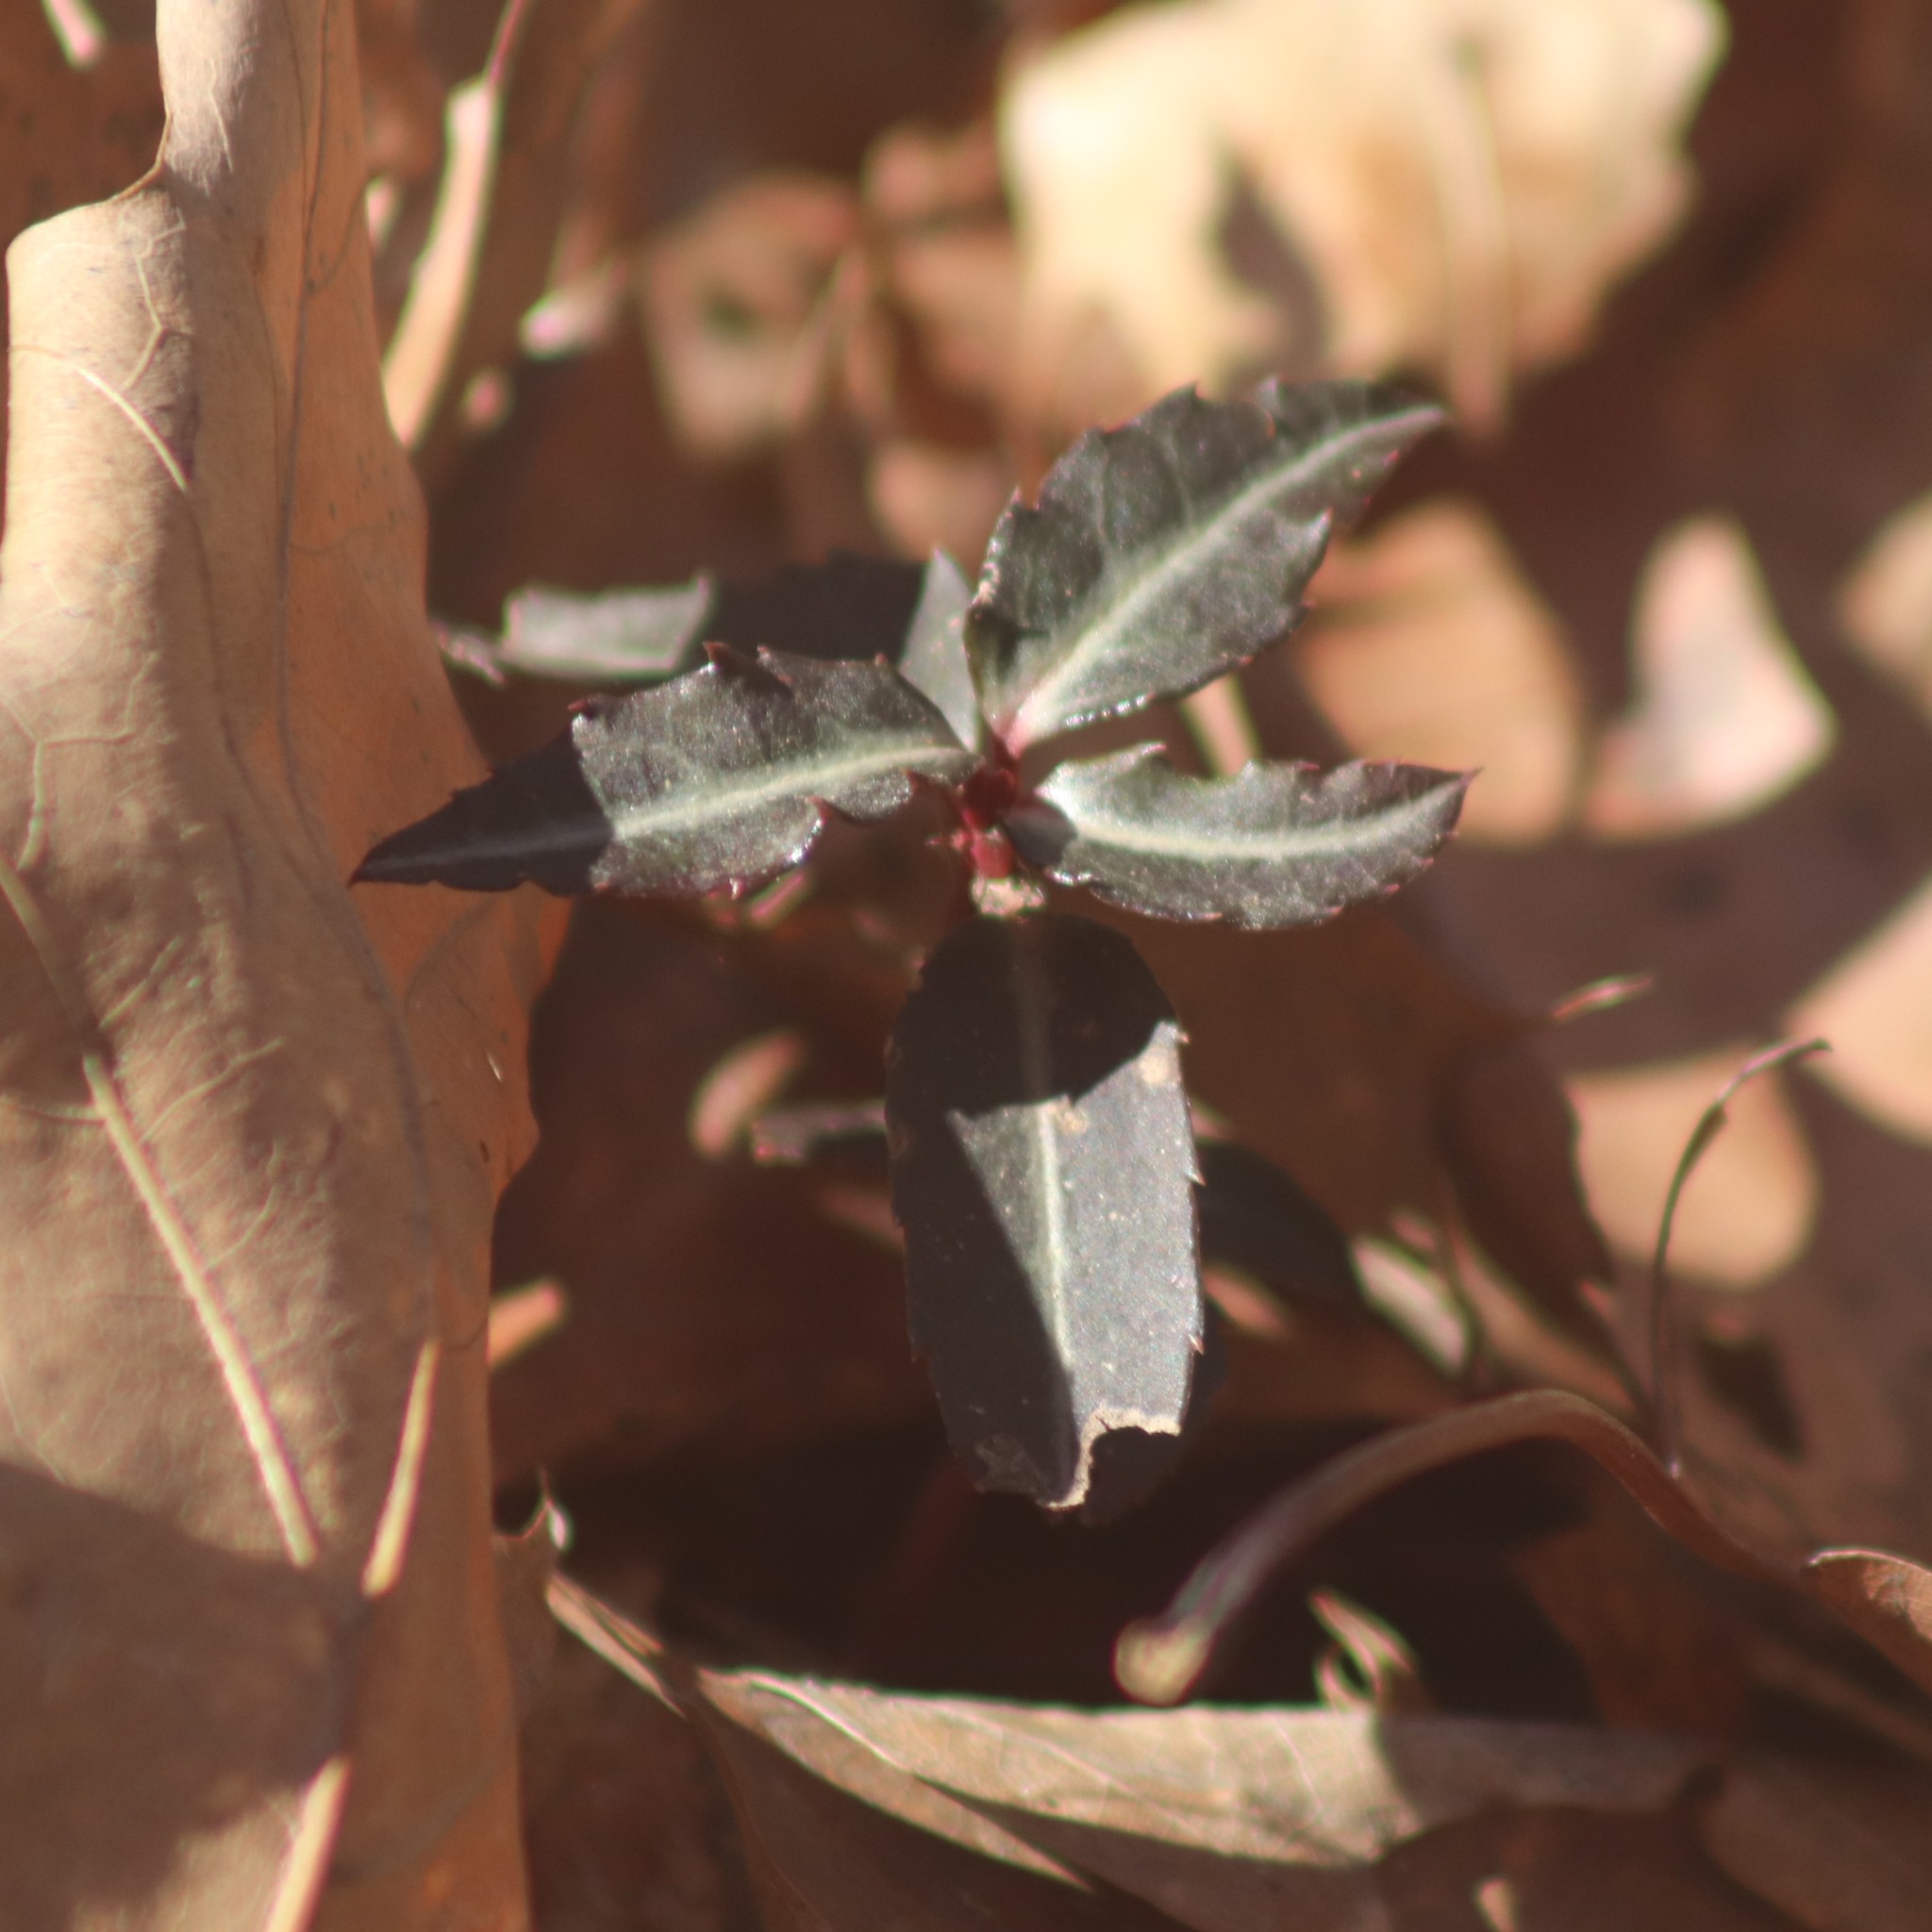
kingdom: Plantae
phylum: Tracheophyta
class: Magnoliopsida
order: Ericales
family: Ericaceae
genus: Chimaphila
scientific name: Chimaphila maculata
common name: Spotted pipsissewa
